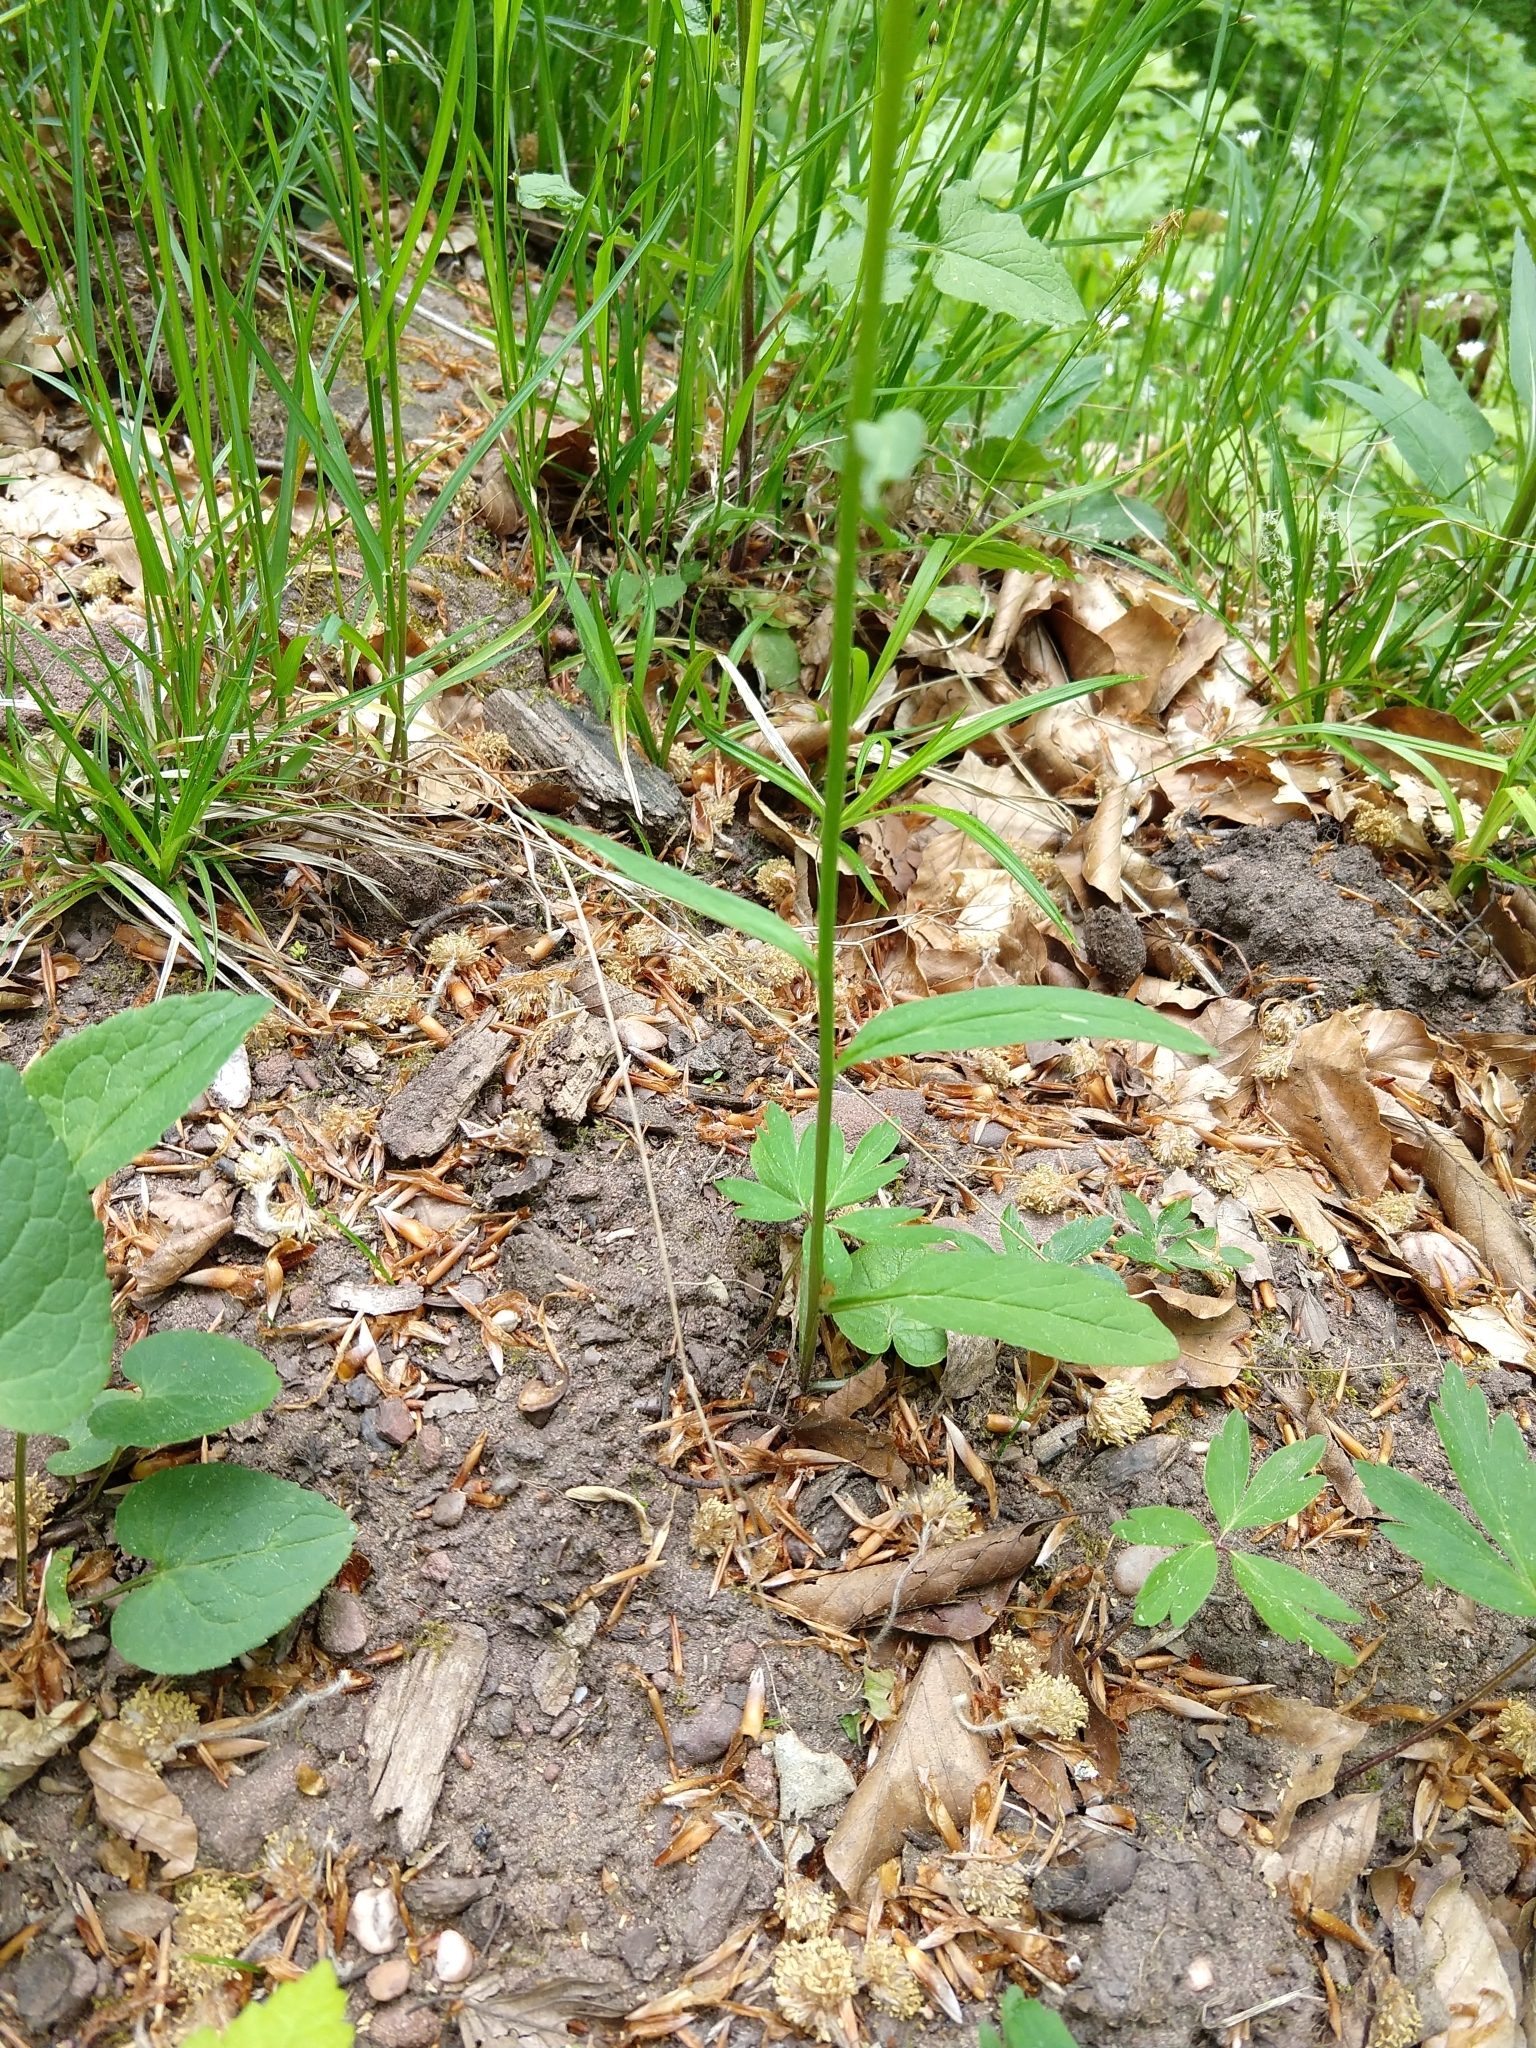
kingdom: Plantae
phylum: Tracheophyta
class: Magnoliopsida
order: Asterales
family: Campanulaceae
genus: Phyteuma
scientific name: Phyteuma nigrum
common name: Black rampion
